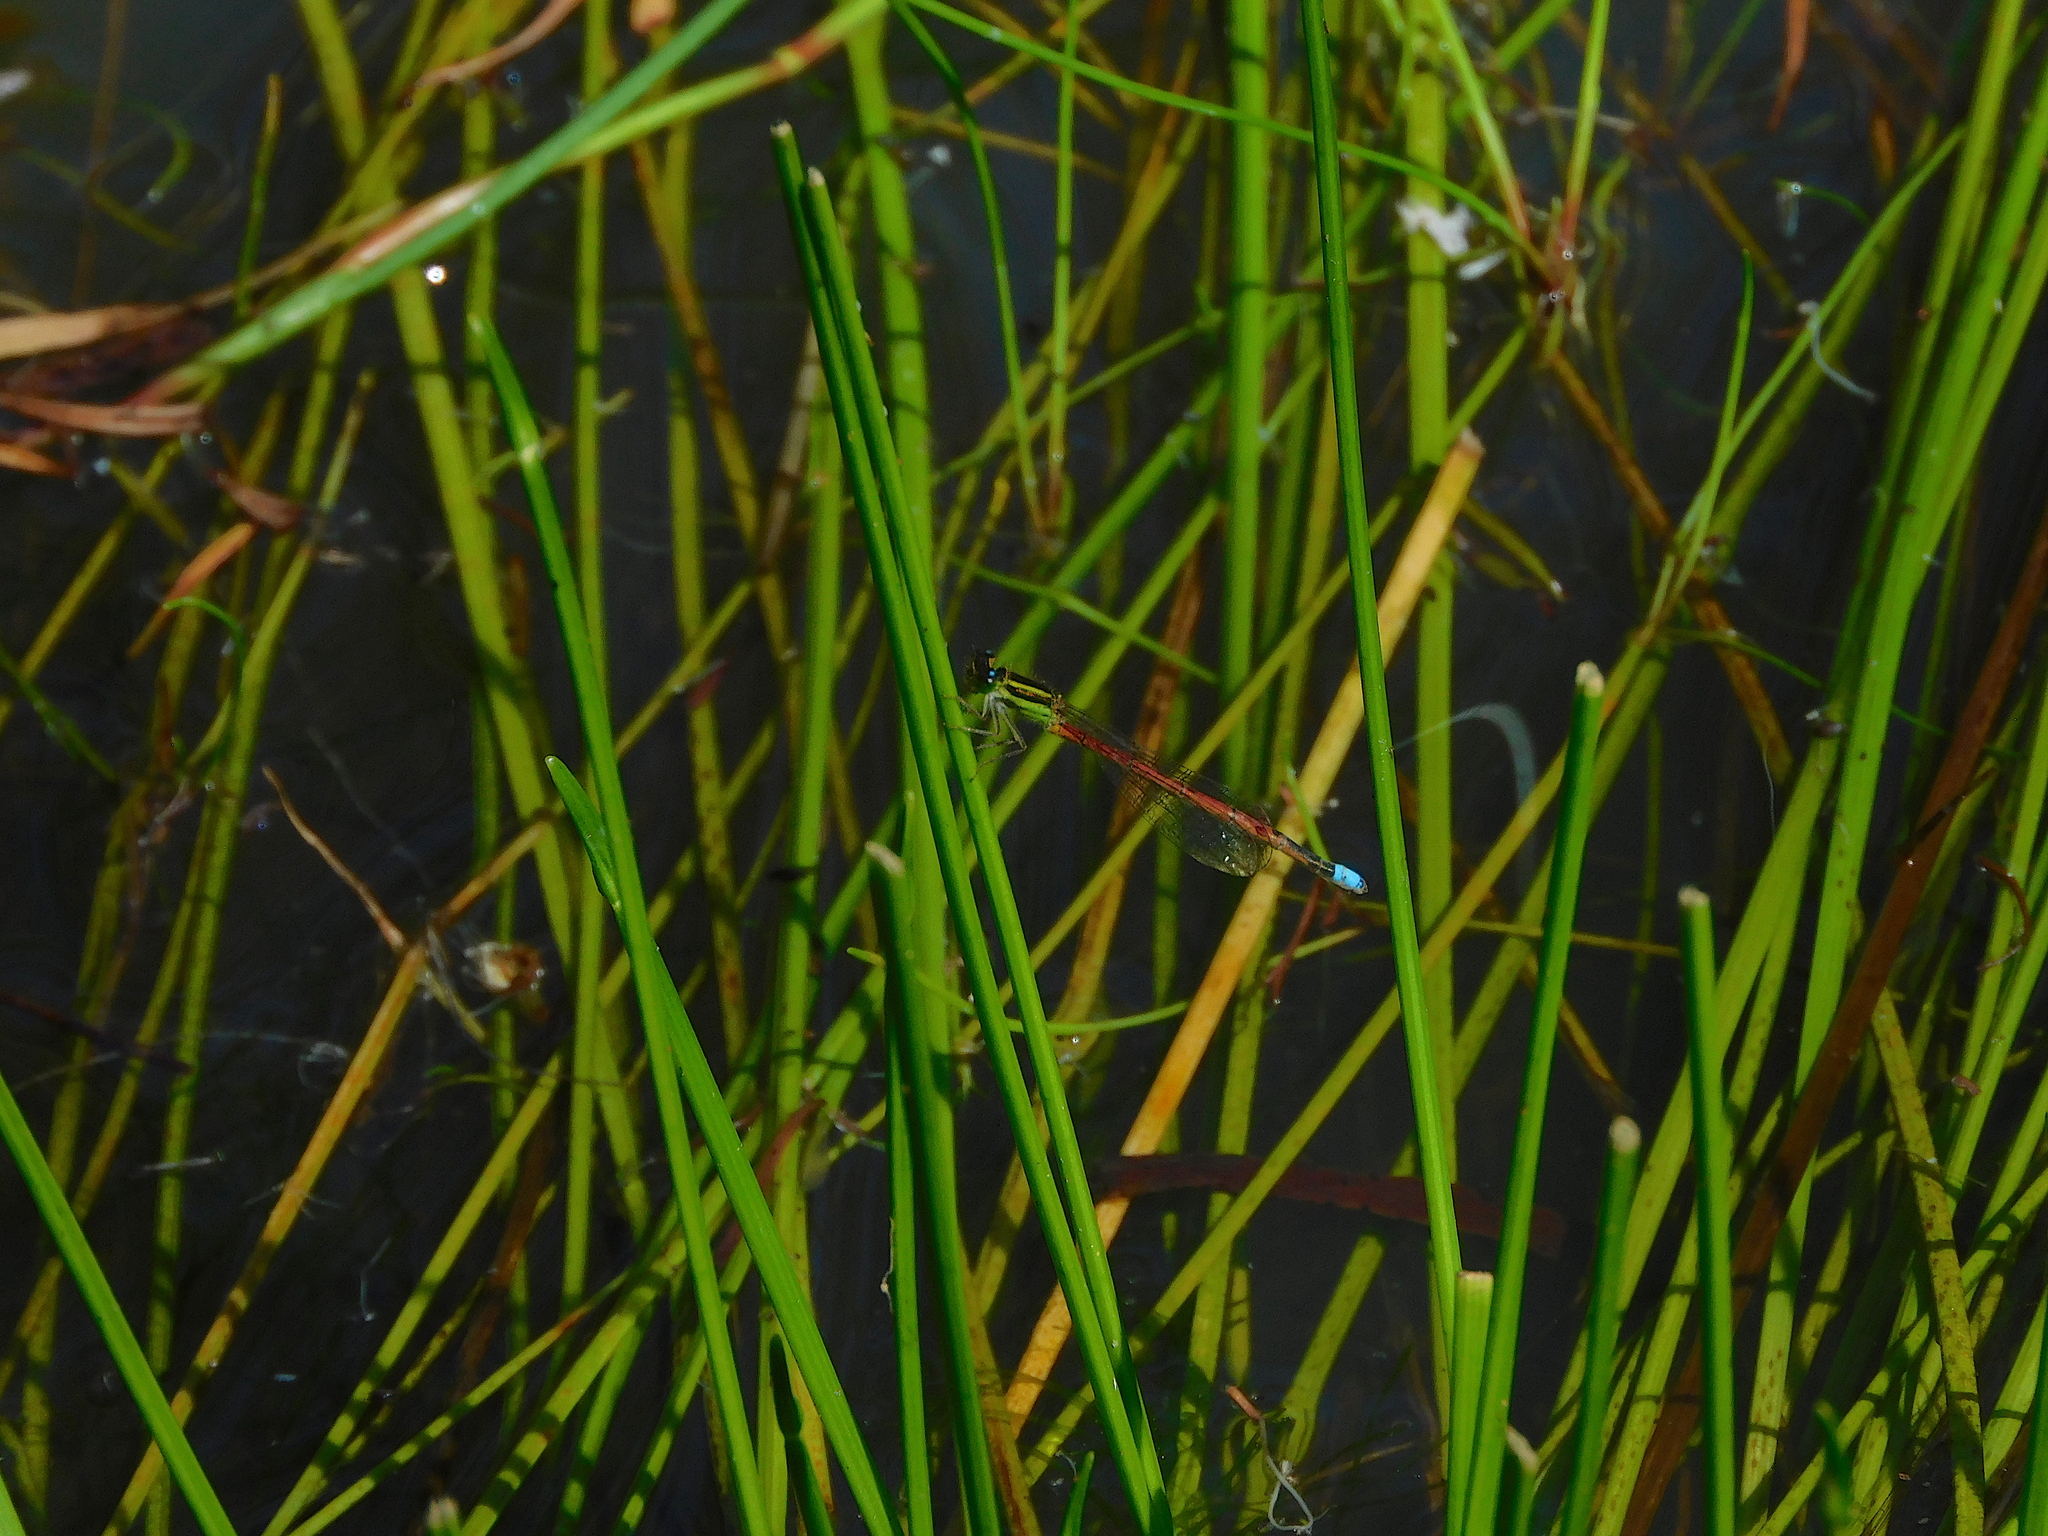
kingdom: Animalia
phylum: Arthropoda
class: Insecta
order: Odonata
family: Coenagrionidae
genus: Ischnura
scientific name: Ischnura aurora
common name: Gossamer damselfly
